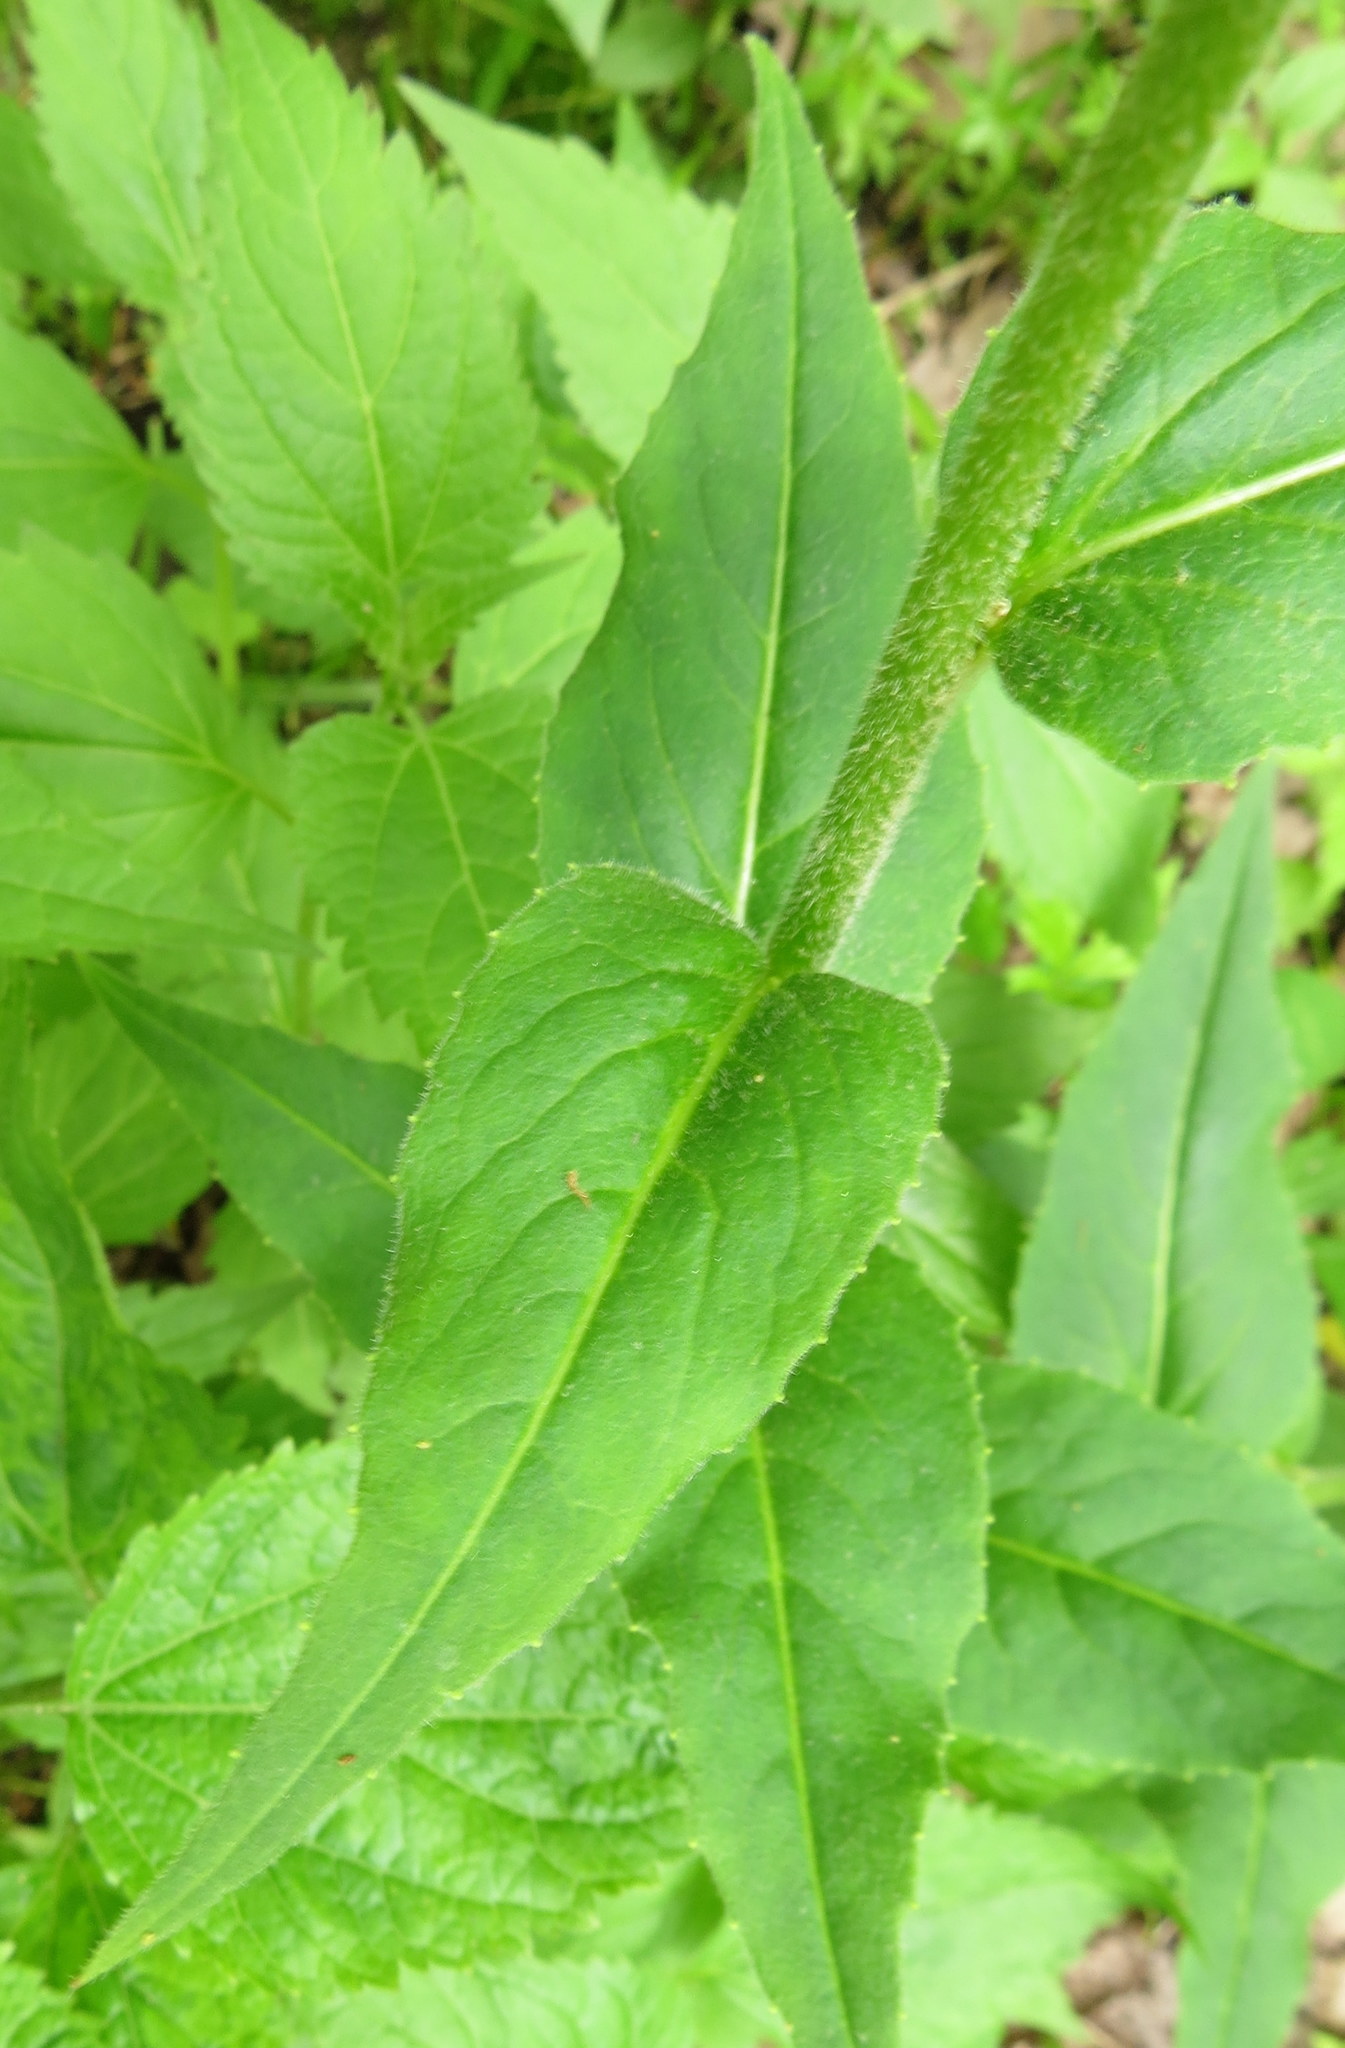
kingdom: Plantae
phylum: Tracheophyta
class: Magnoliopsida
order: Brassicales
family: Brassicaceae
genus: Hesperis
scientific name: Hesperis matronalis
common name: Dame's-violet
